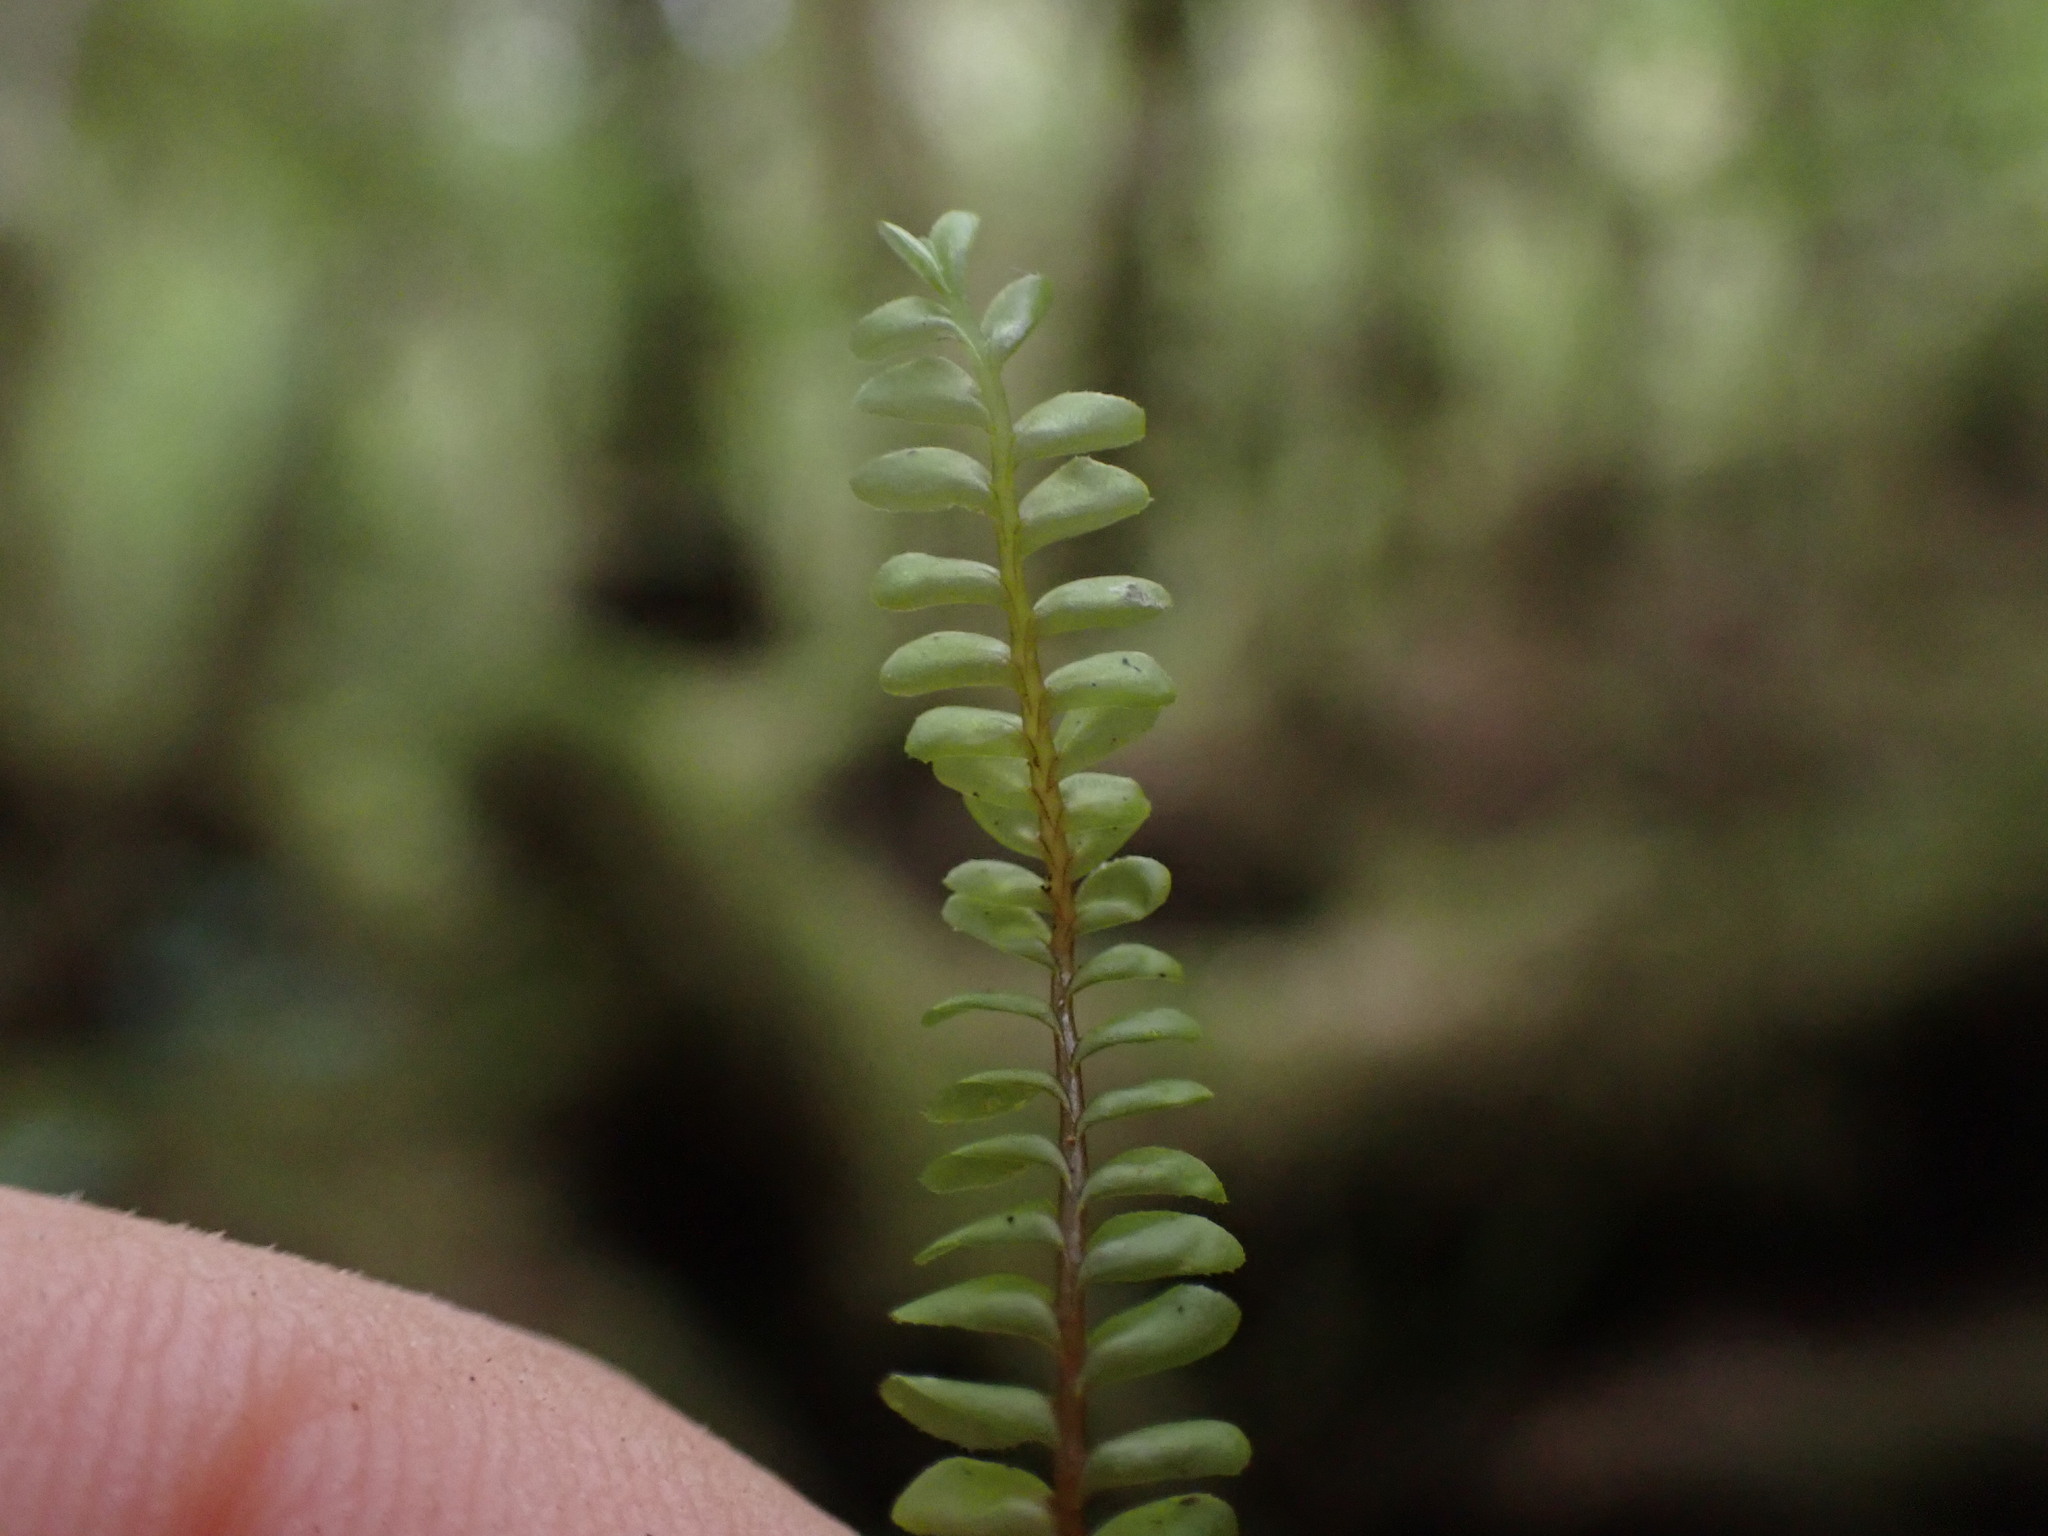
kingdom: Plantae
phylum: Marchantiophyta
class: Jungermanniopsida
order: Jungermanniales
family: Plagiochilaceae
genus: Plagiochila
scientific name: Plagiochila porelloides
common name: Lesser featherwort
